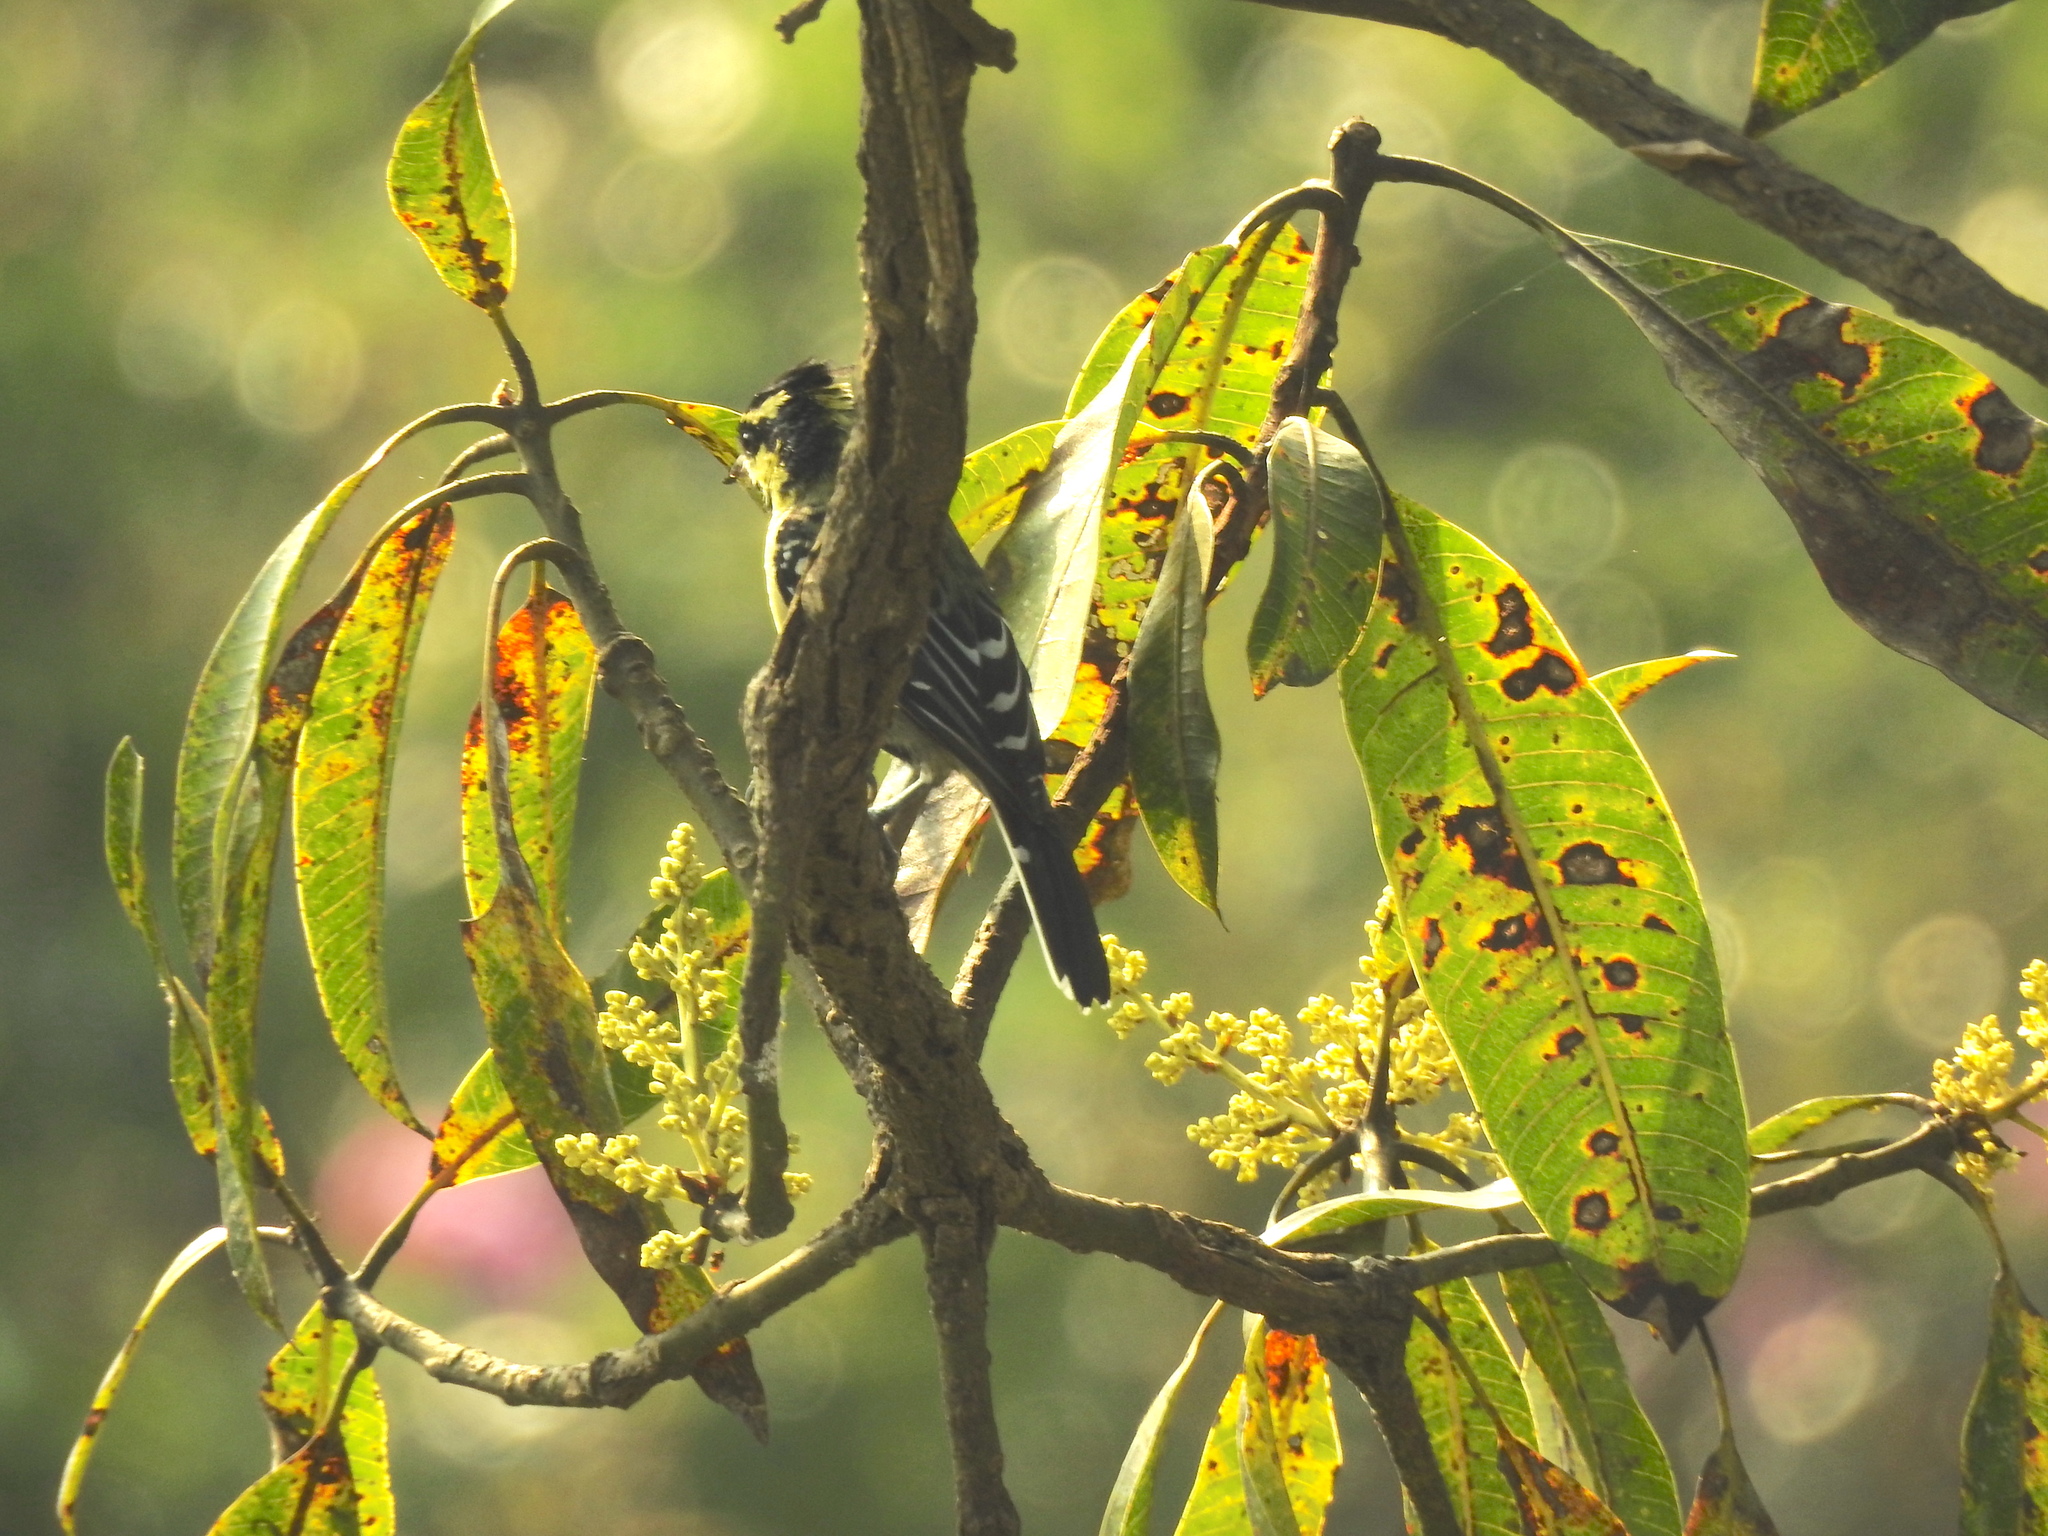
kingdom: Animalia
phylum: Chordata
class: Aves
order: Passeriformes
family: Paridae
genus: Parus
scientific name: Parus aplonotus
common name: Indian black-lored tit
